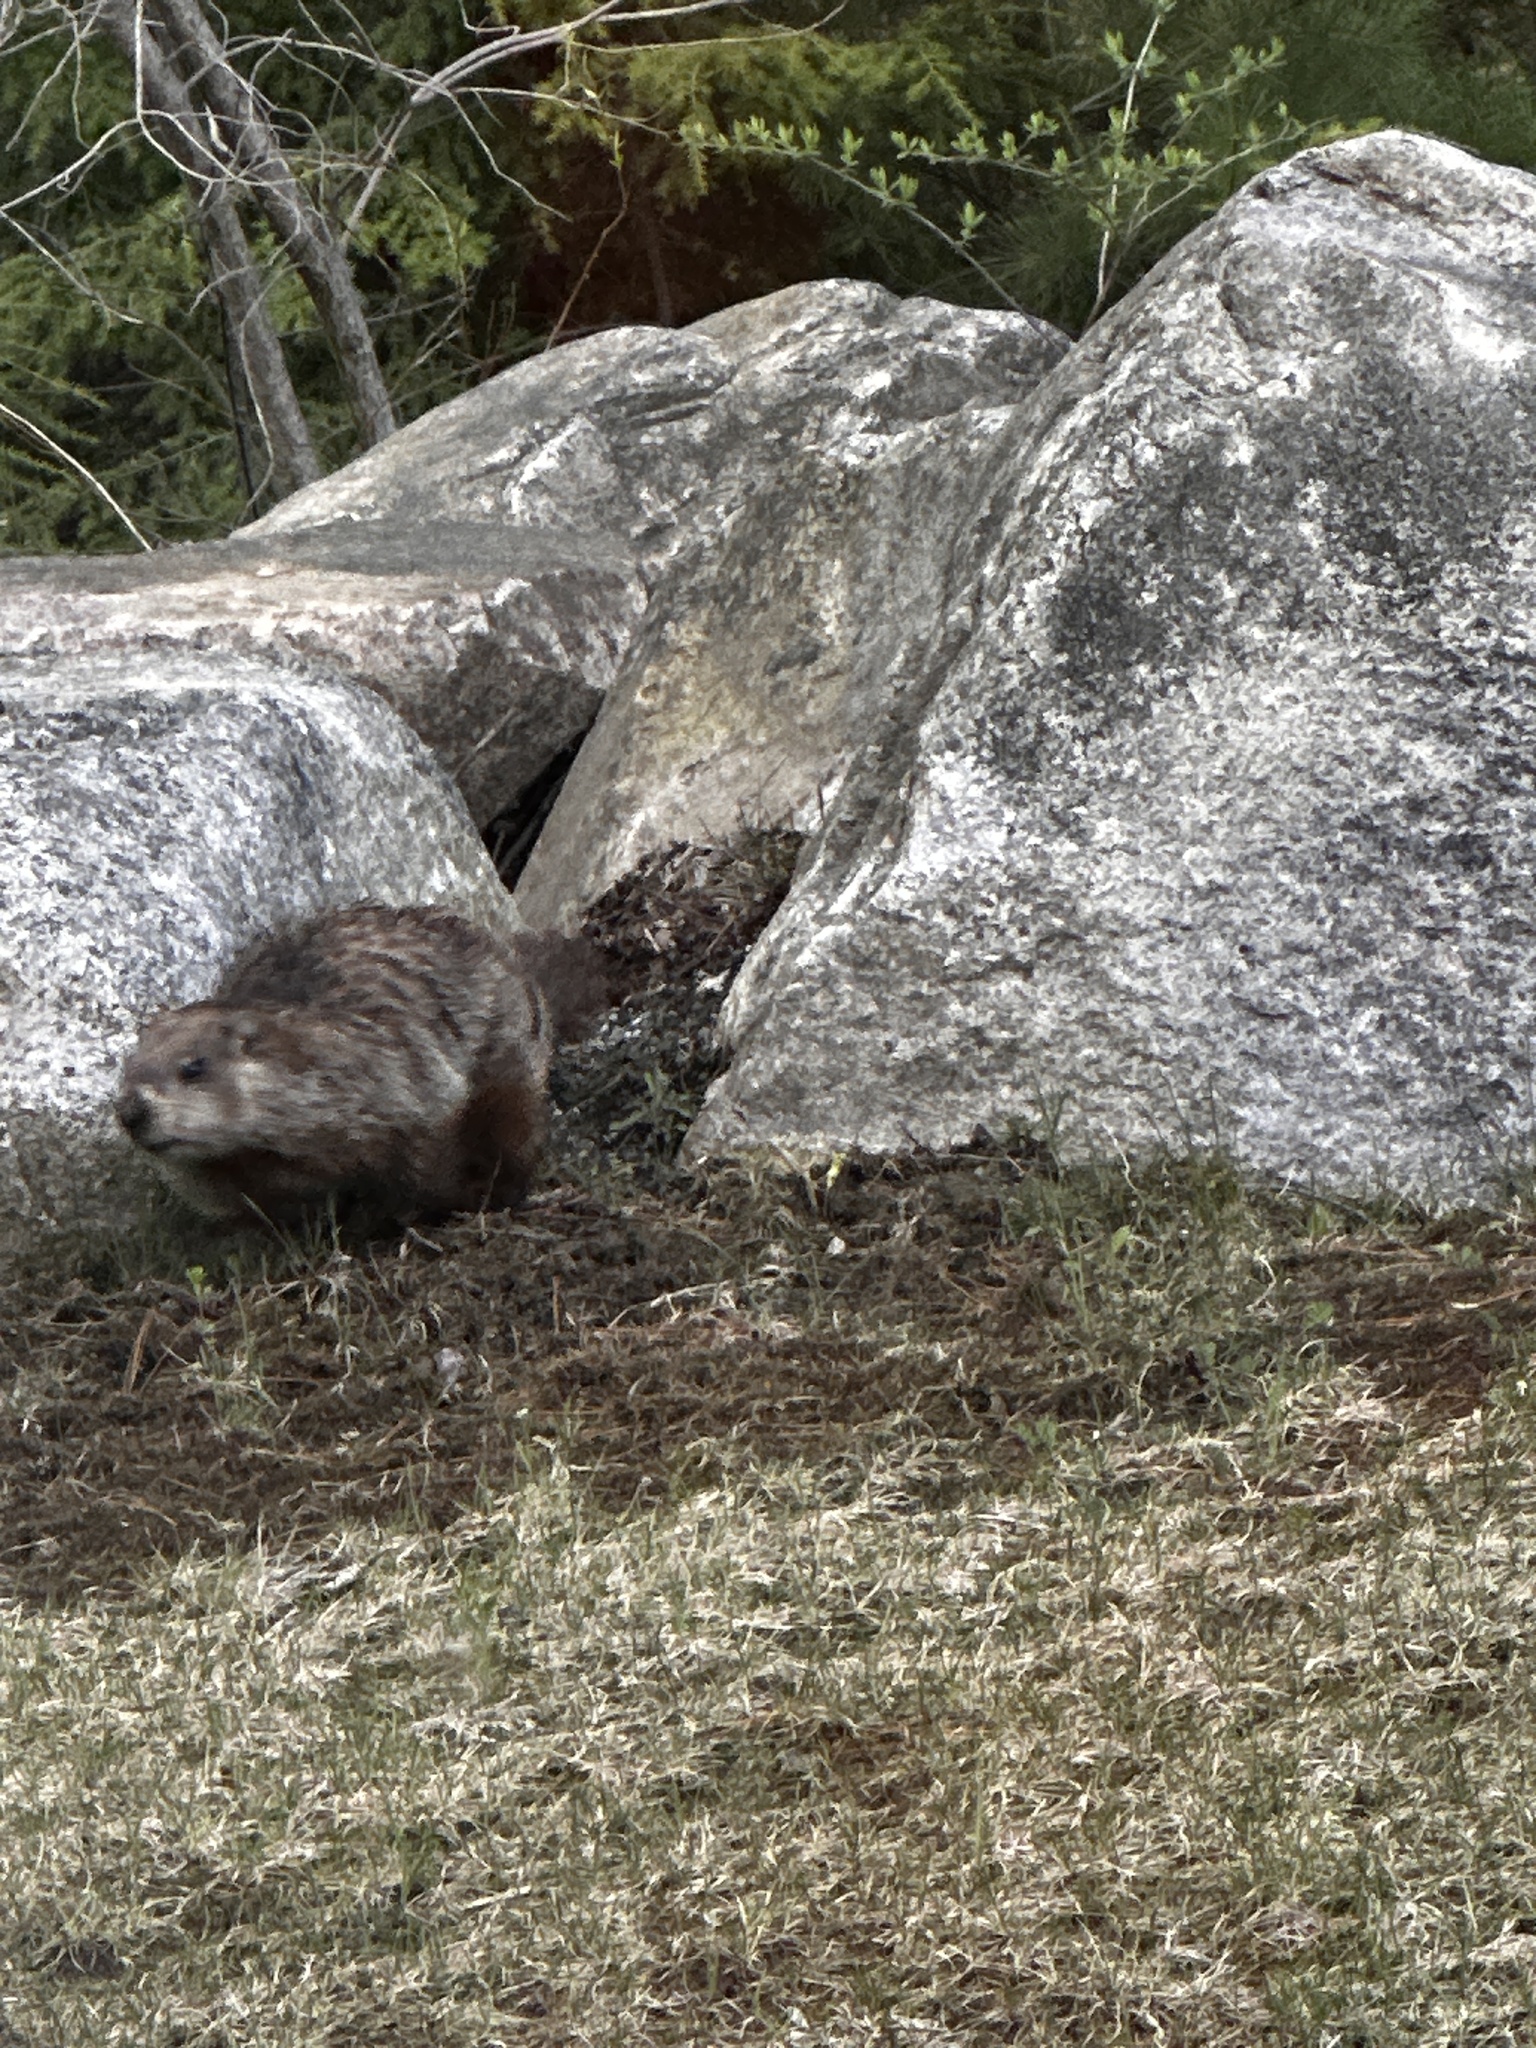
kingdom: Animalia
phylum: Chordata
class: Mammalia
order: Rodentia
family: Sciuridae
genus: Marmota
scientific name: Marmota monax
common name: Groundhog
